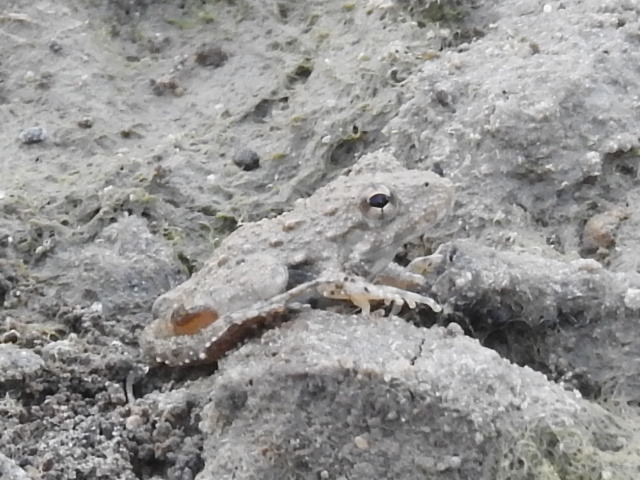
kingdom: Animalia
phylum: Chordata
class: Amphibia
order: Anura
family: Hylidae
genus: Acris
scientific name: Acris blanchardi
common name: Blanchard's cricket frog
